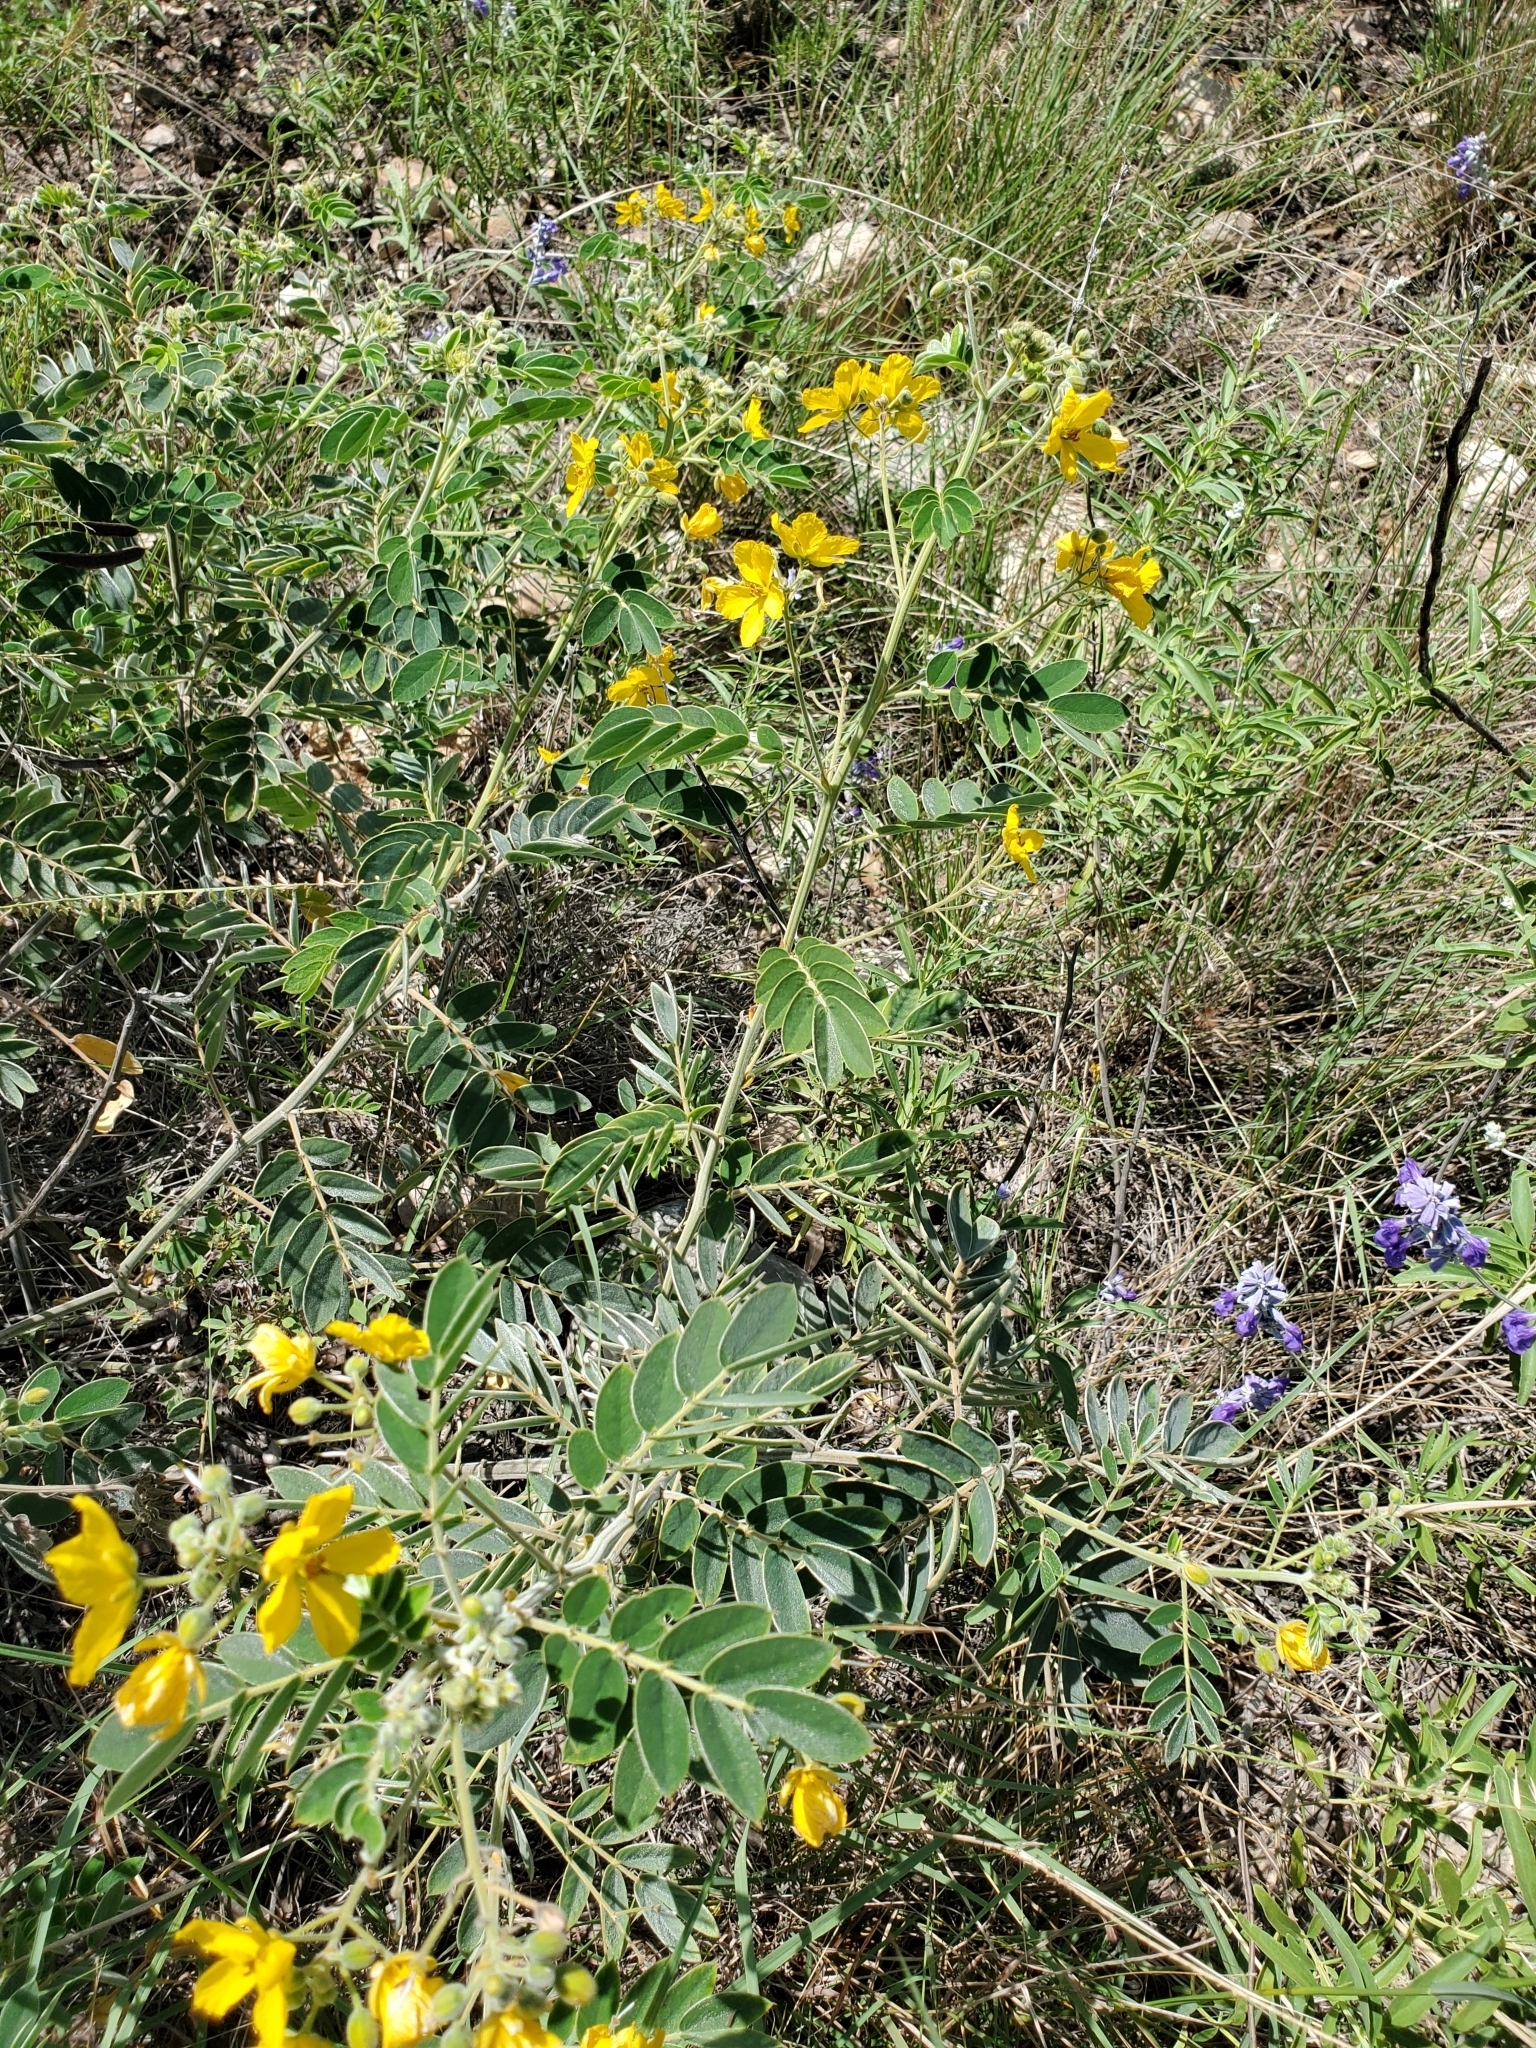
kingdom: Plantae
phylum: Tracheophyta
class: Magnoliopsida
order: Fabales
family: Fabaceae
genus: Senna
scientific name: Senna lindheimeriana
